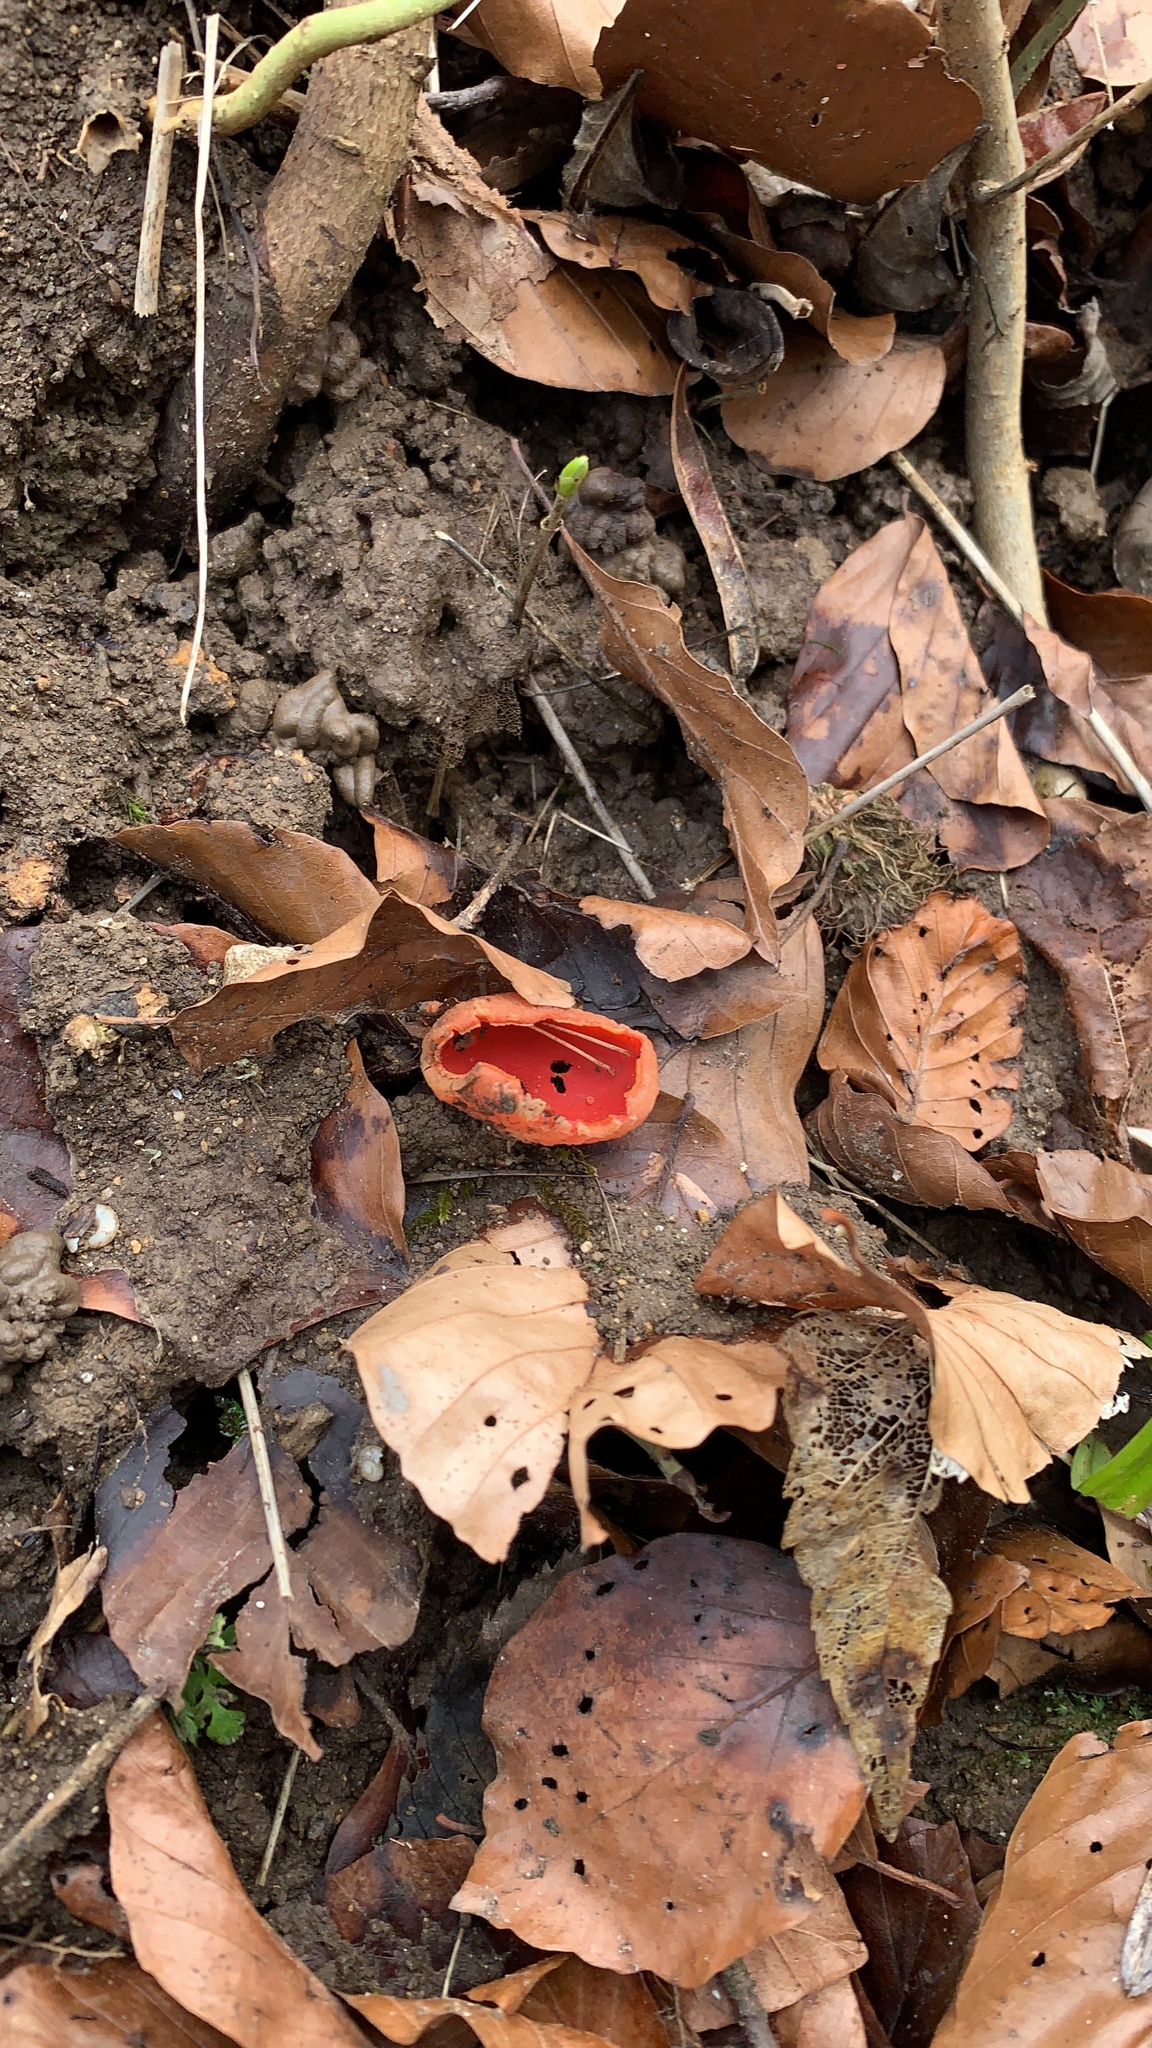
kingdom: Fungi
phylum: Ascomycota
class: Pezizomycetes
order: Pezizales
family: Sarcoscyphaceae
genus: Sarcoscypha
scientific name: Sarcoscypha
